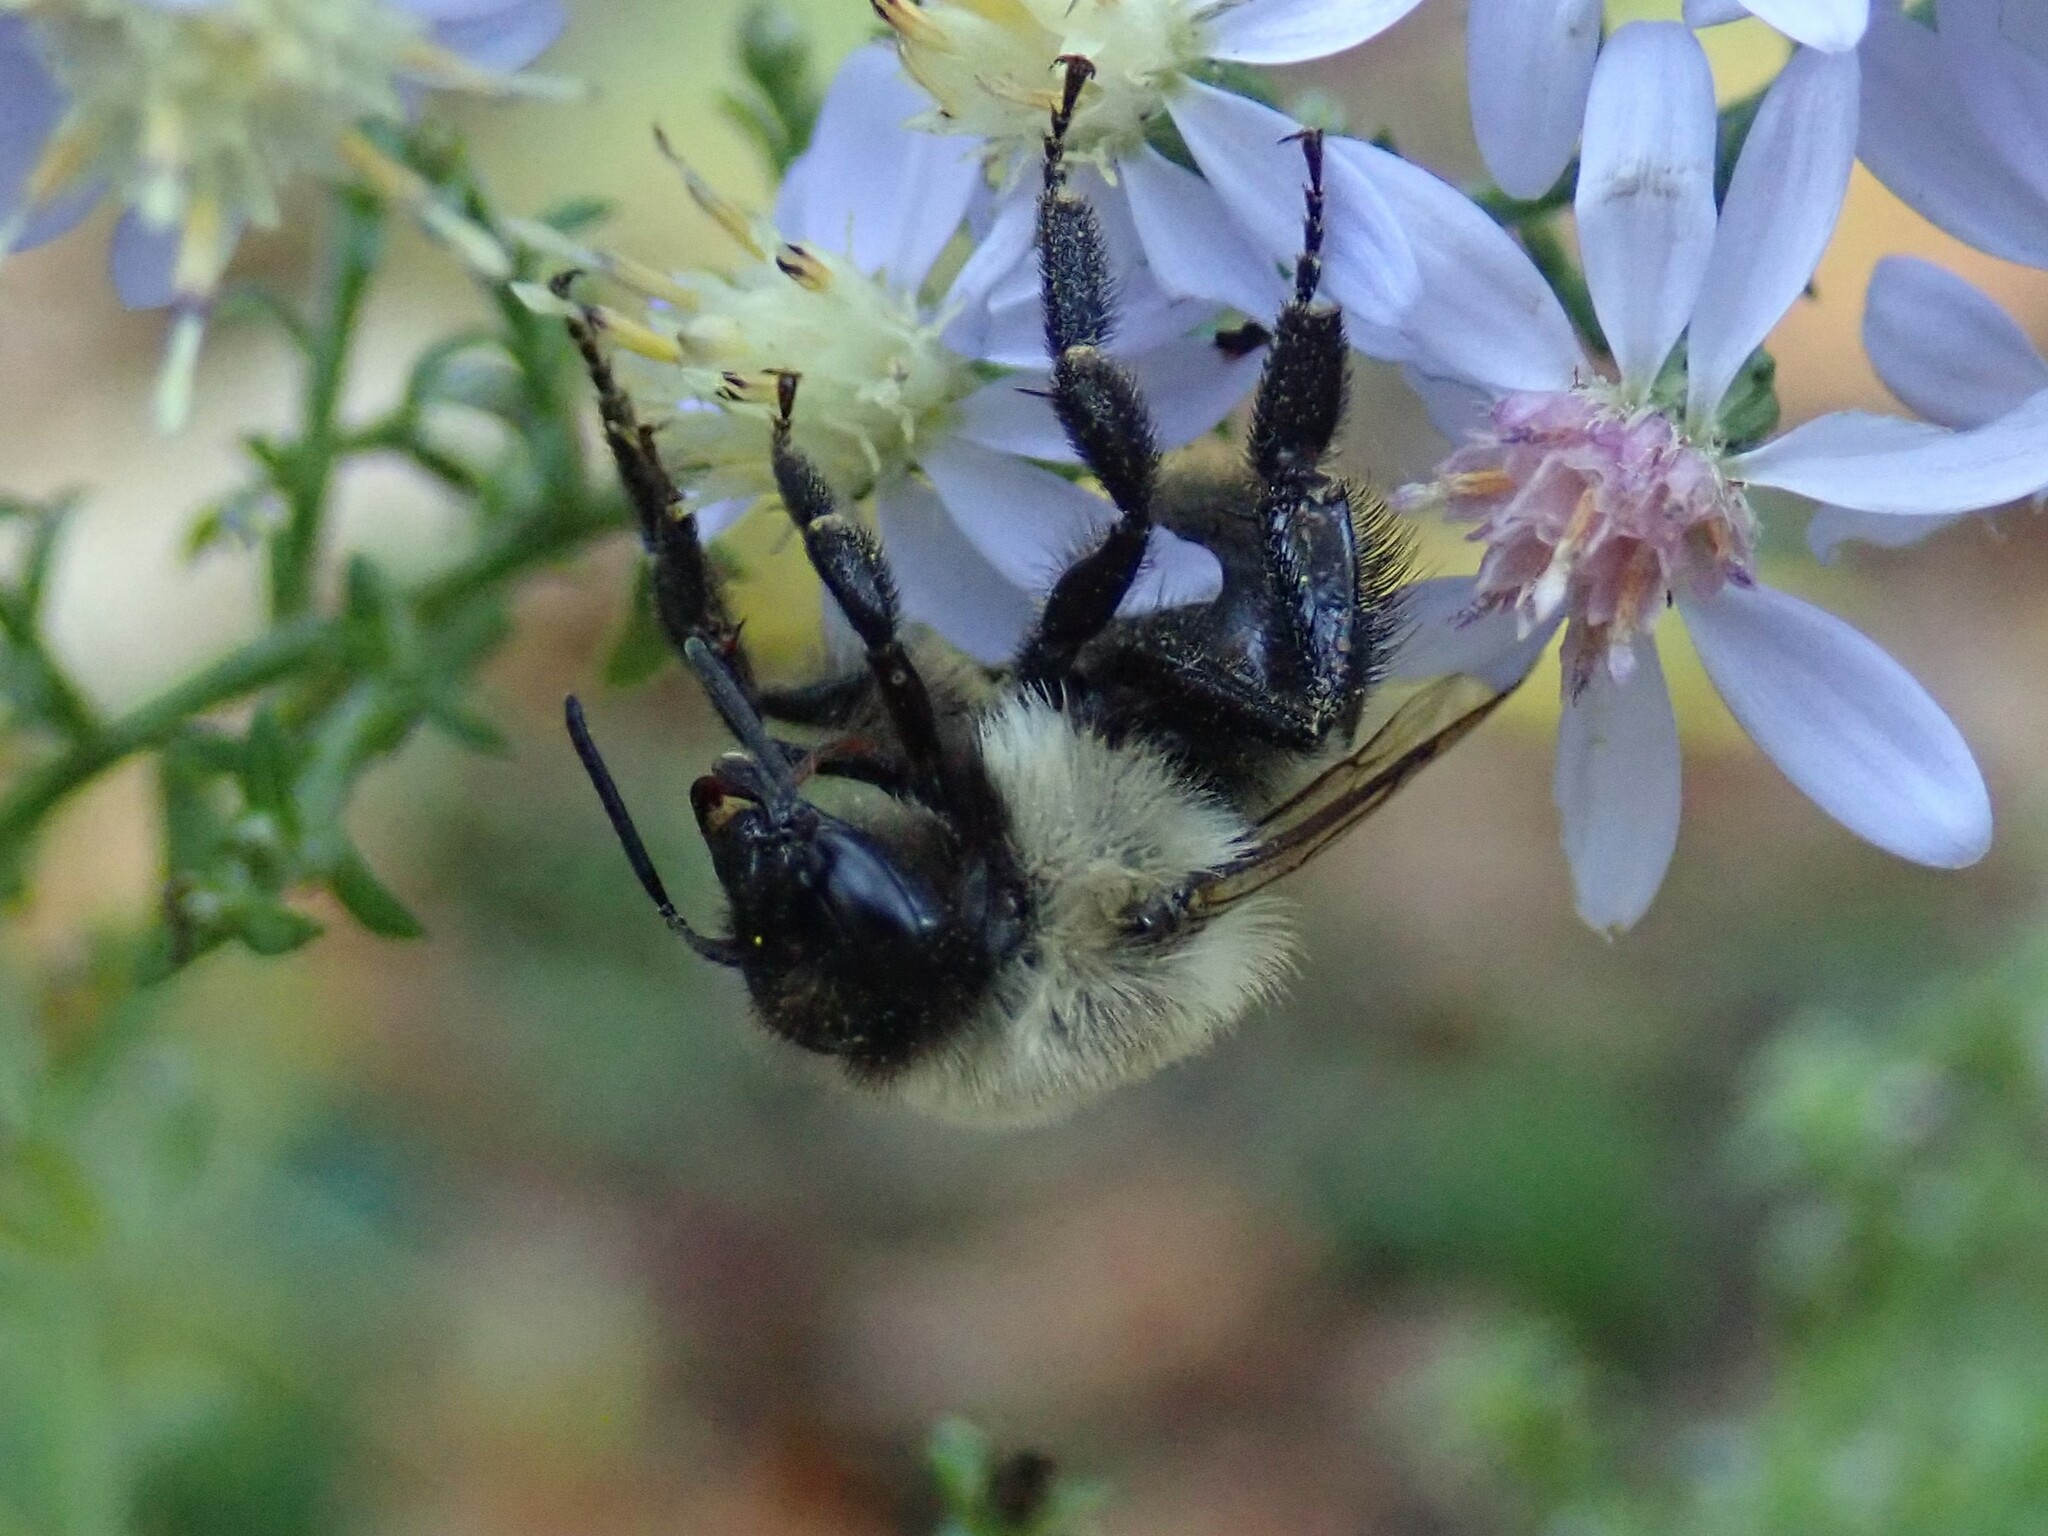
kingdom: Animalia
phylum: Arthropoda
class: Insecta
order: Hymenoptera
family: Apidae
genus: Bombus
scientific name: Bombus impatiens
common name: Common eastern bumble bee
